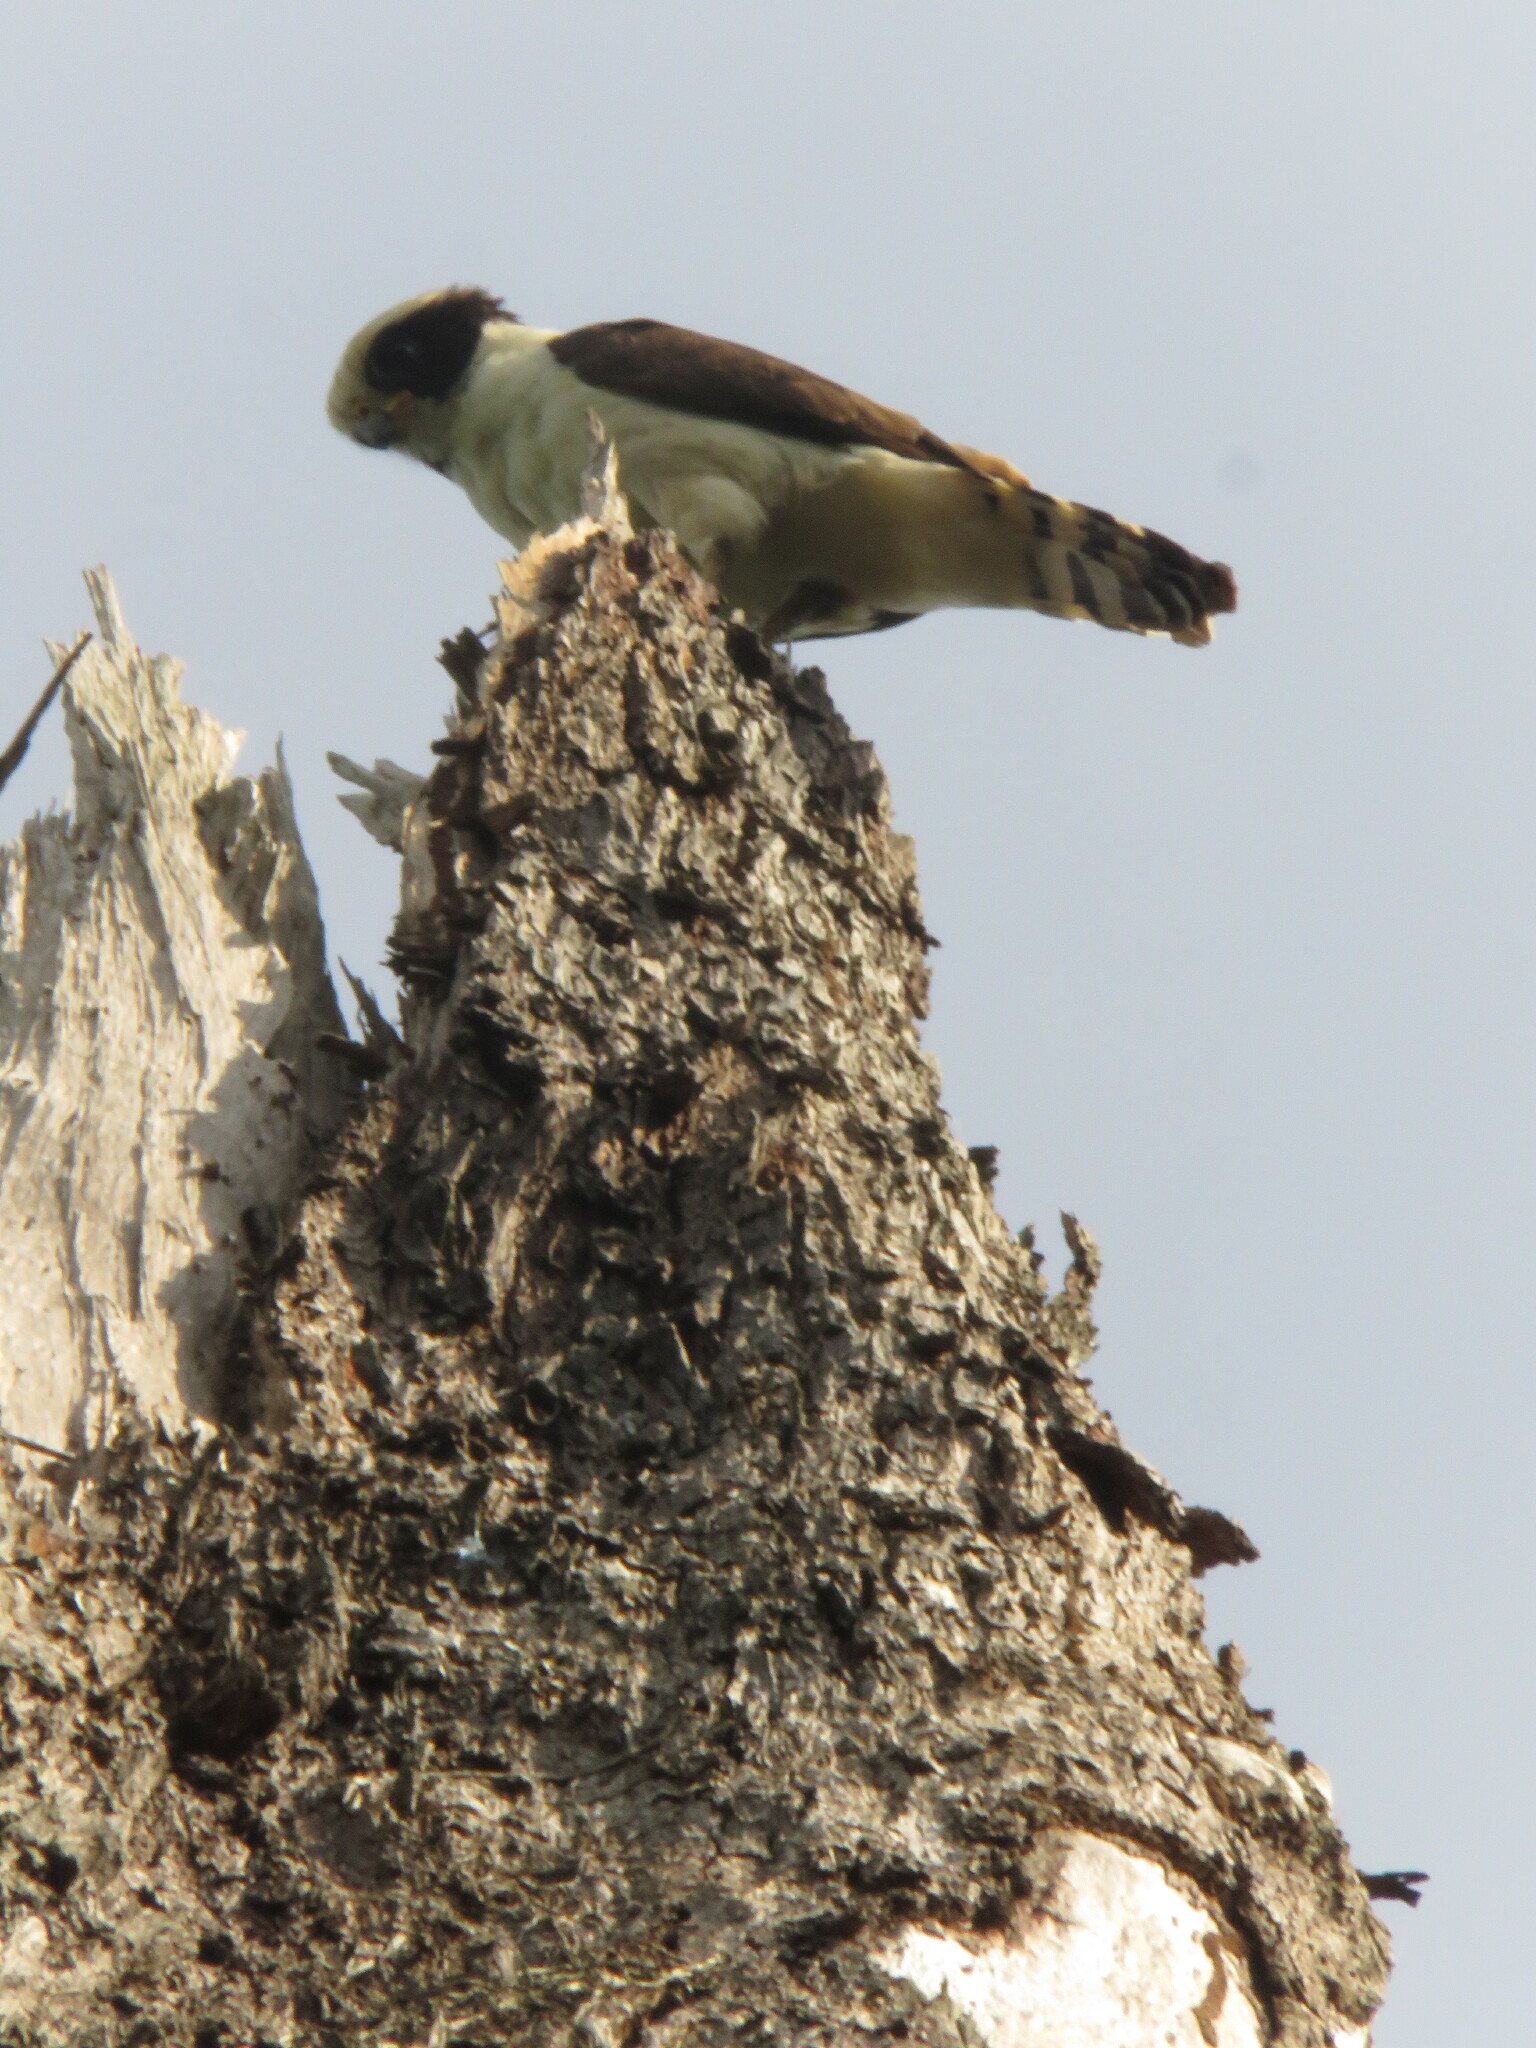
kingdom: Animalia
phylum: Chordata
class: Aves
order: Falconiformes
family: Falconidae
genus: Herpetotheres
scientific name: Herpetotheres cachinnans
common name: Laughing falcon
